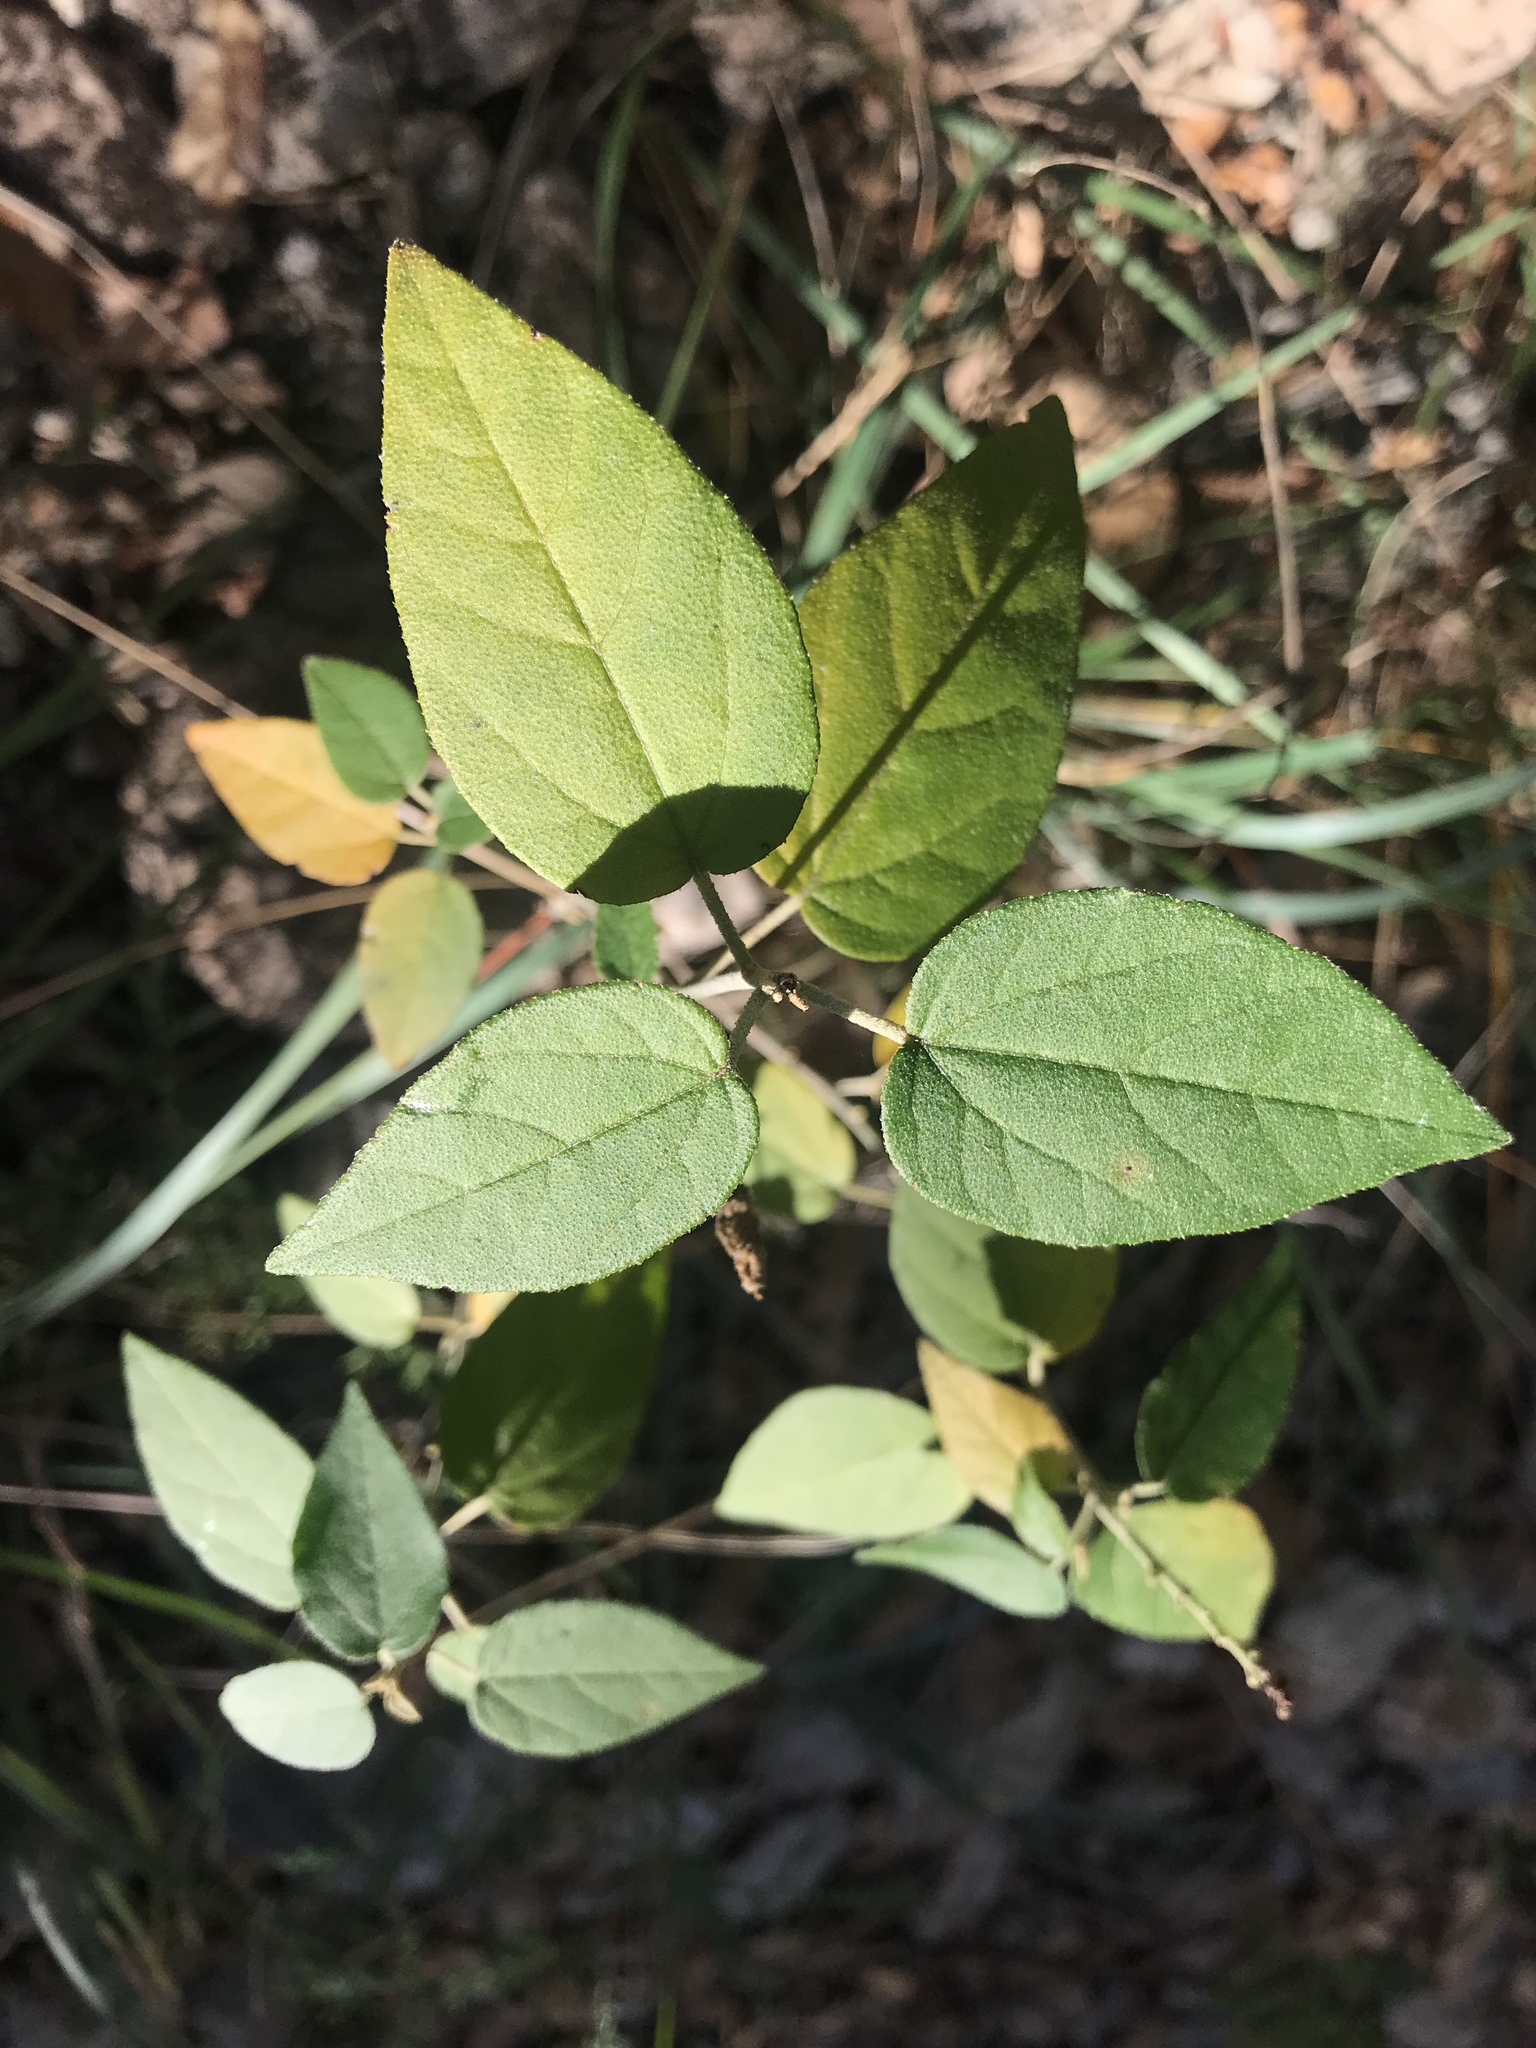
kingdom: Plantae
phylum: Tracheophyta
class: Magnoliopsida
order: Malpighiales
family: Euphorbiaceae
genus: Croton
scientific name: Croton fruticulosus
